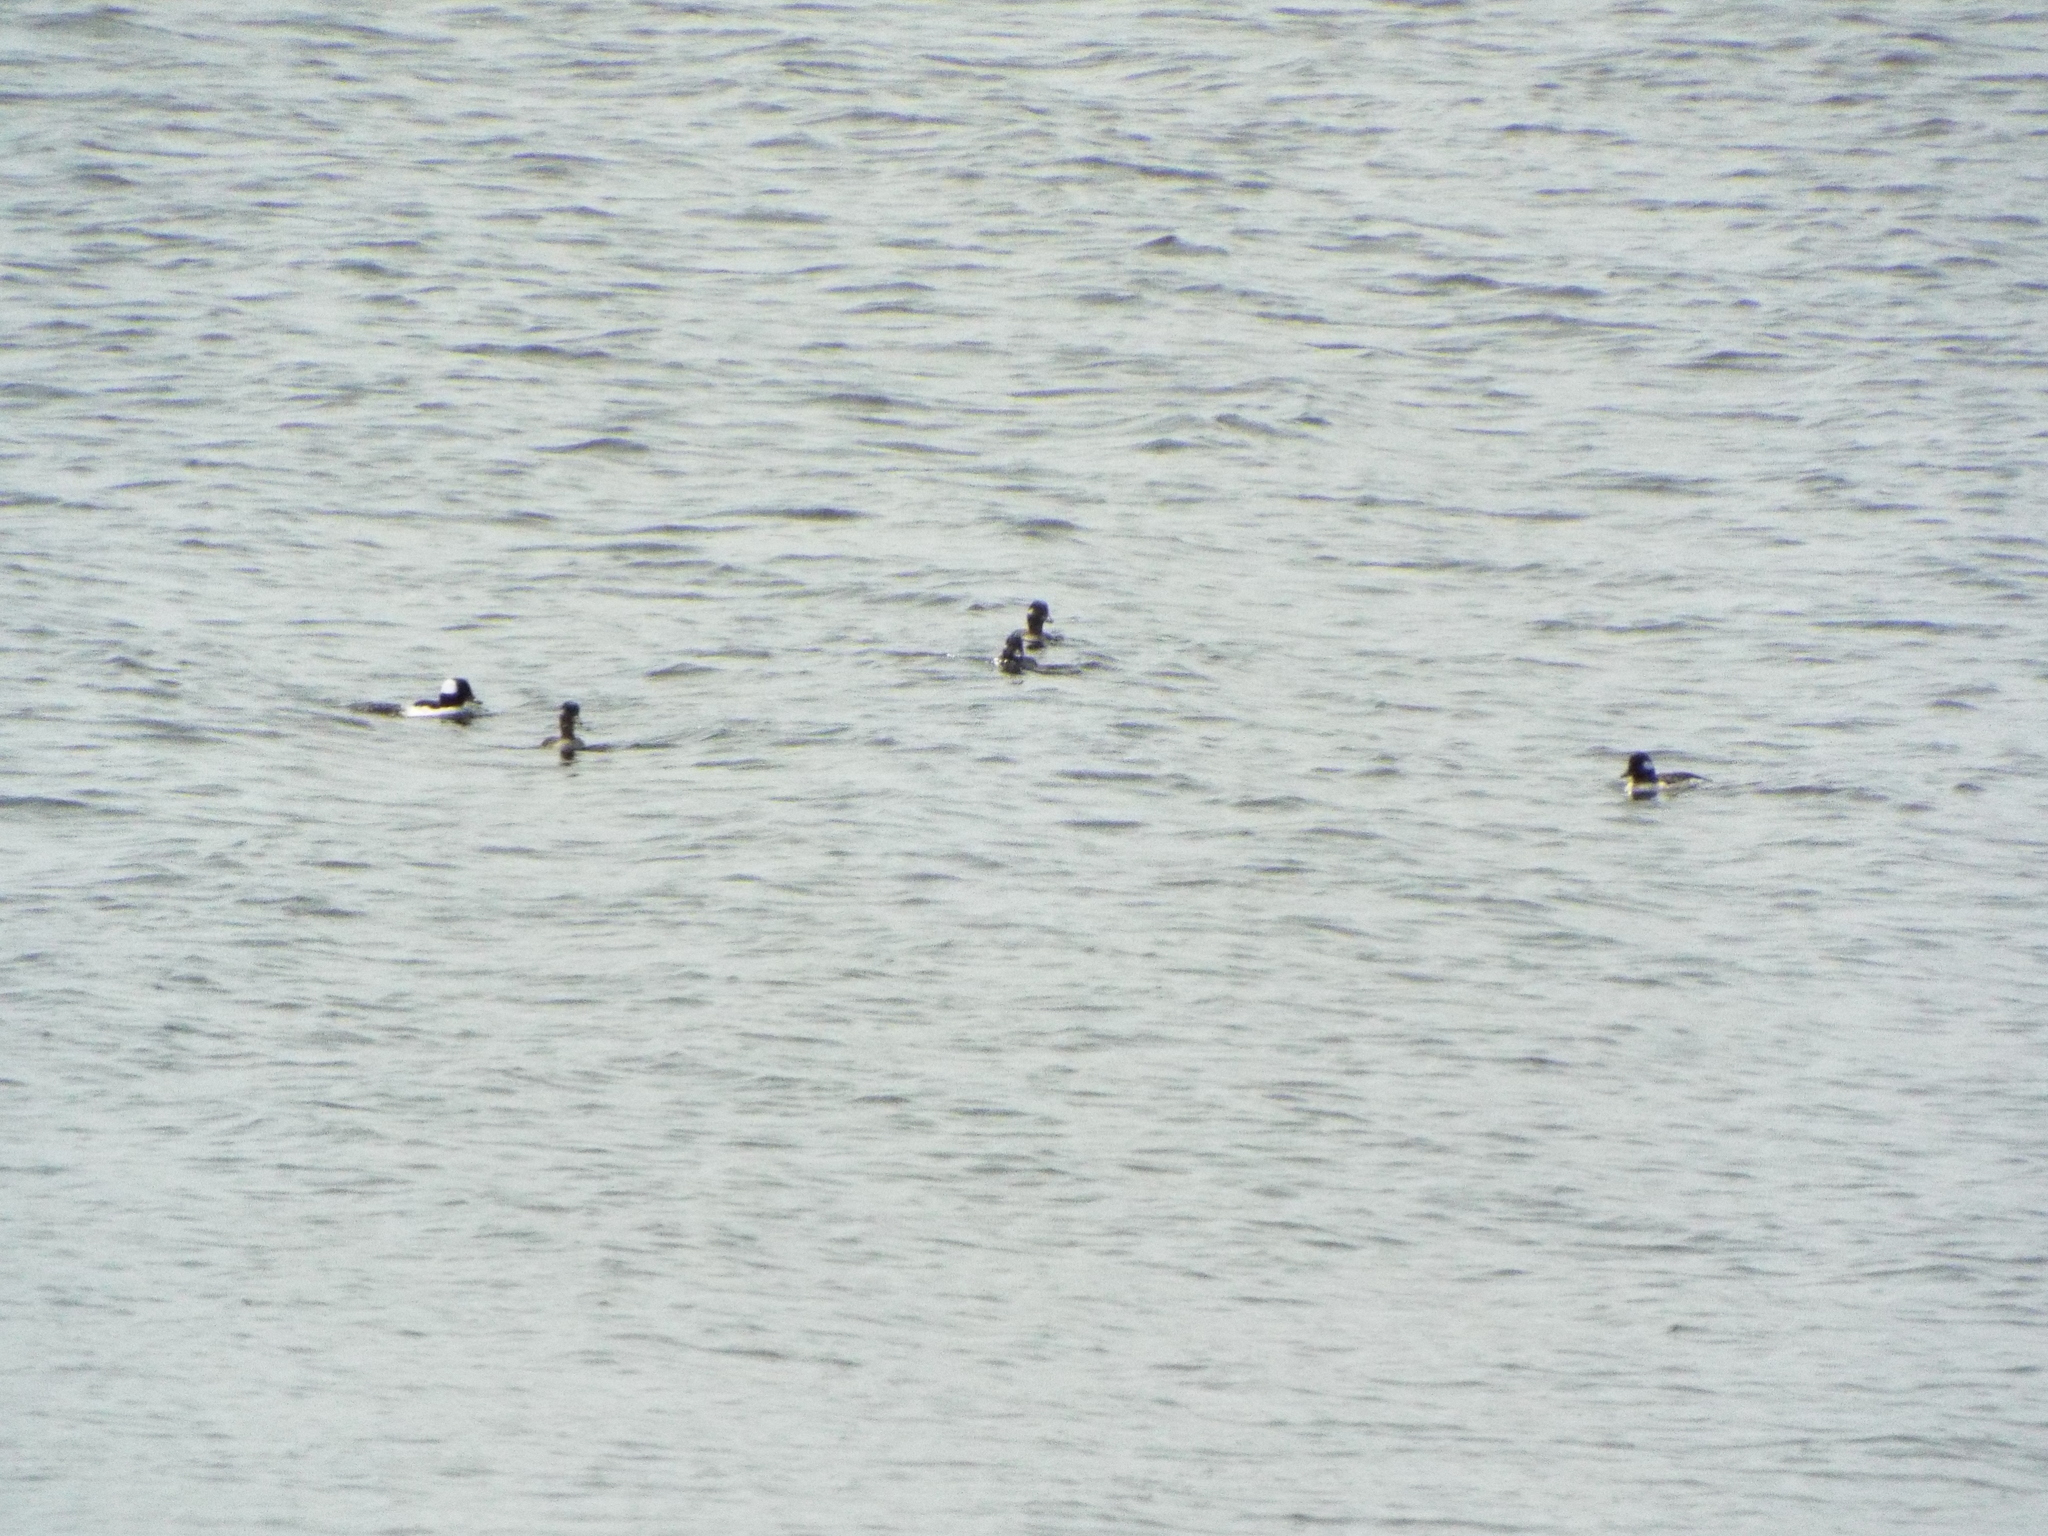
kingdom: Animalia
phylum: Chordata
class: Aves
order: Anseriformes
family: Anatidae
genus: Bucephala
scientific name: Bucephala albeola
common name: Bufflehead
